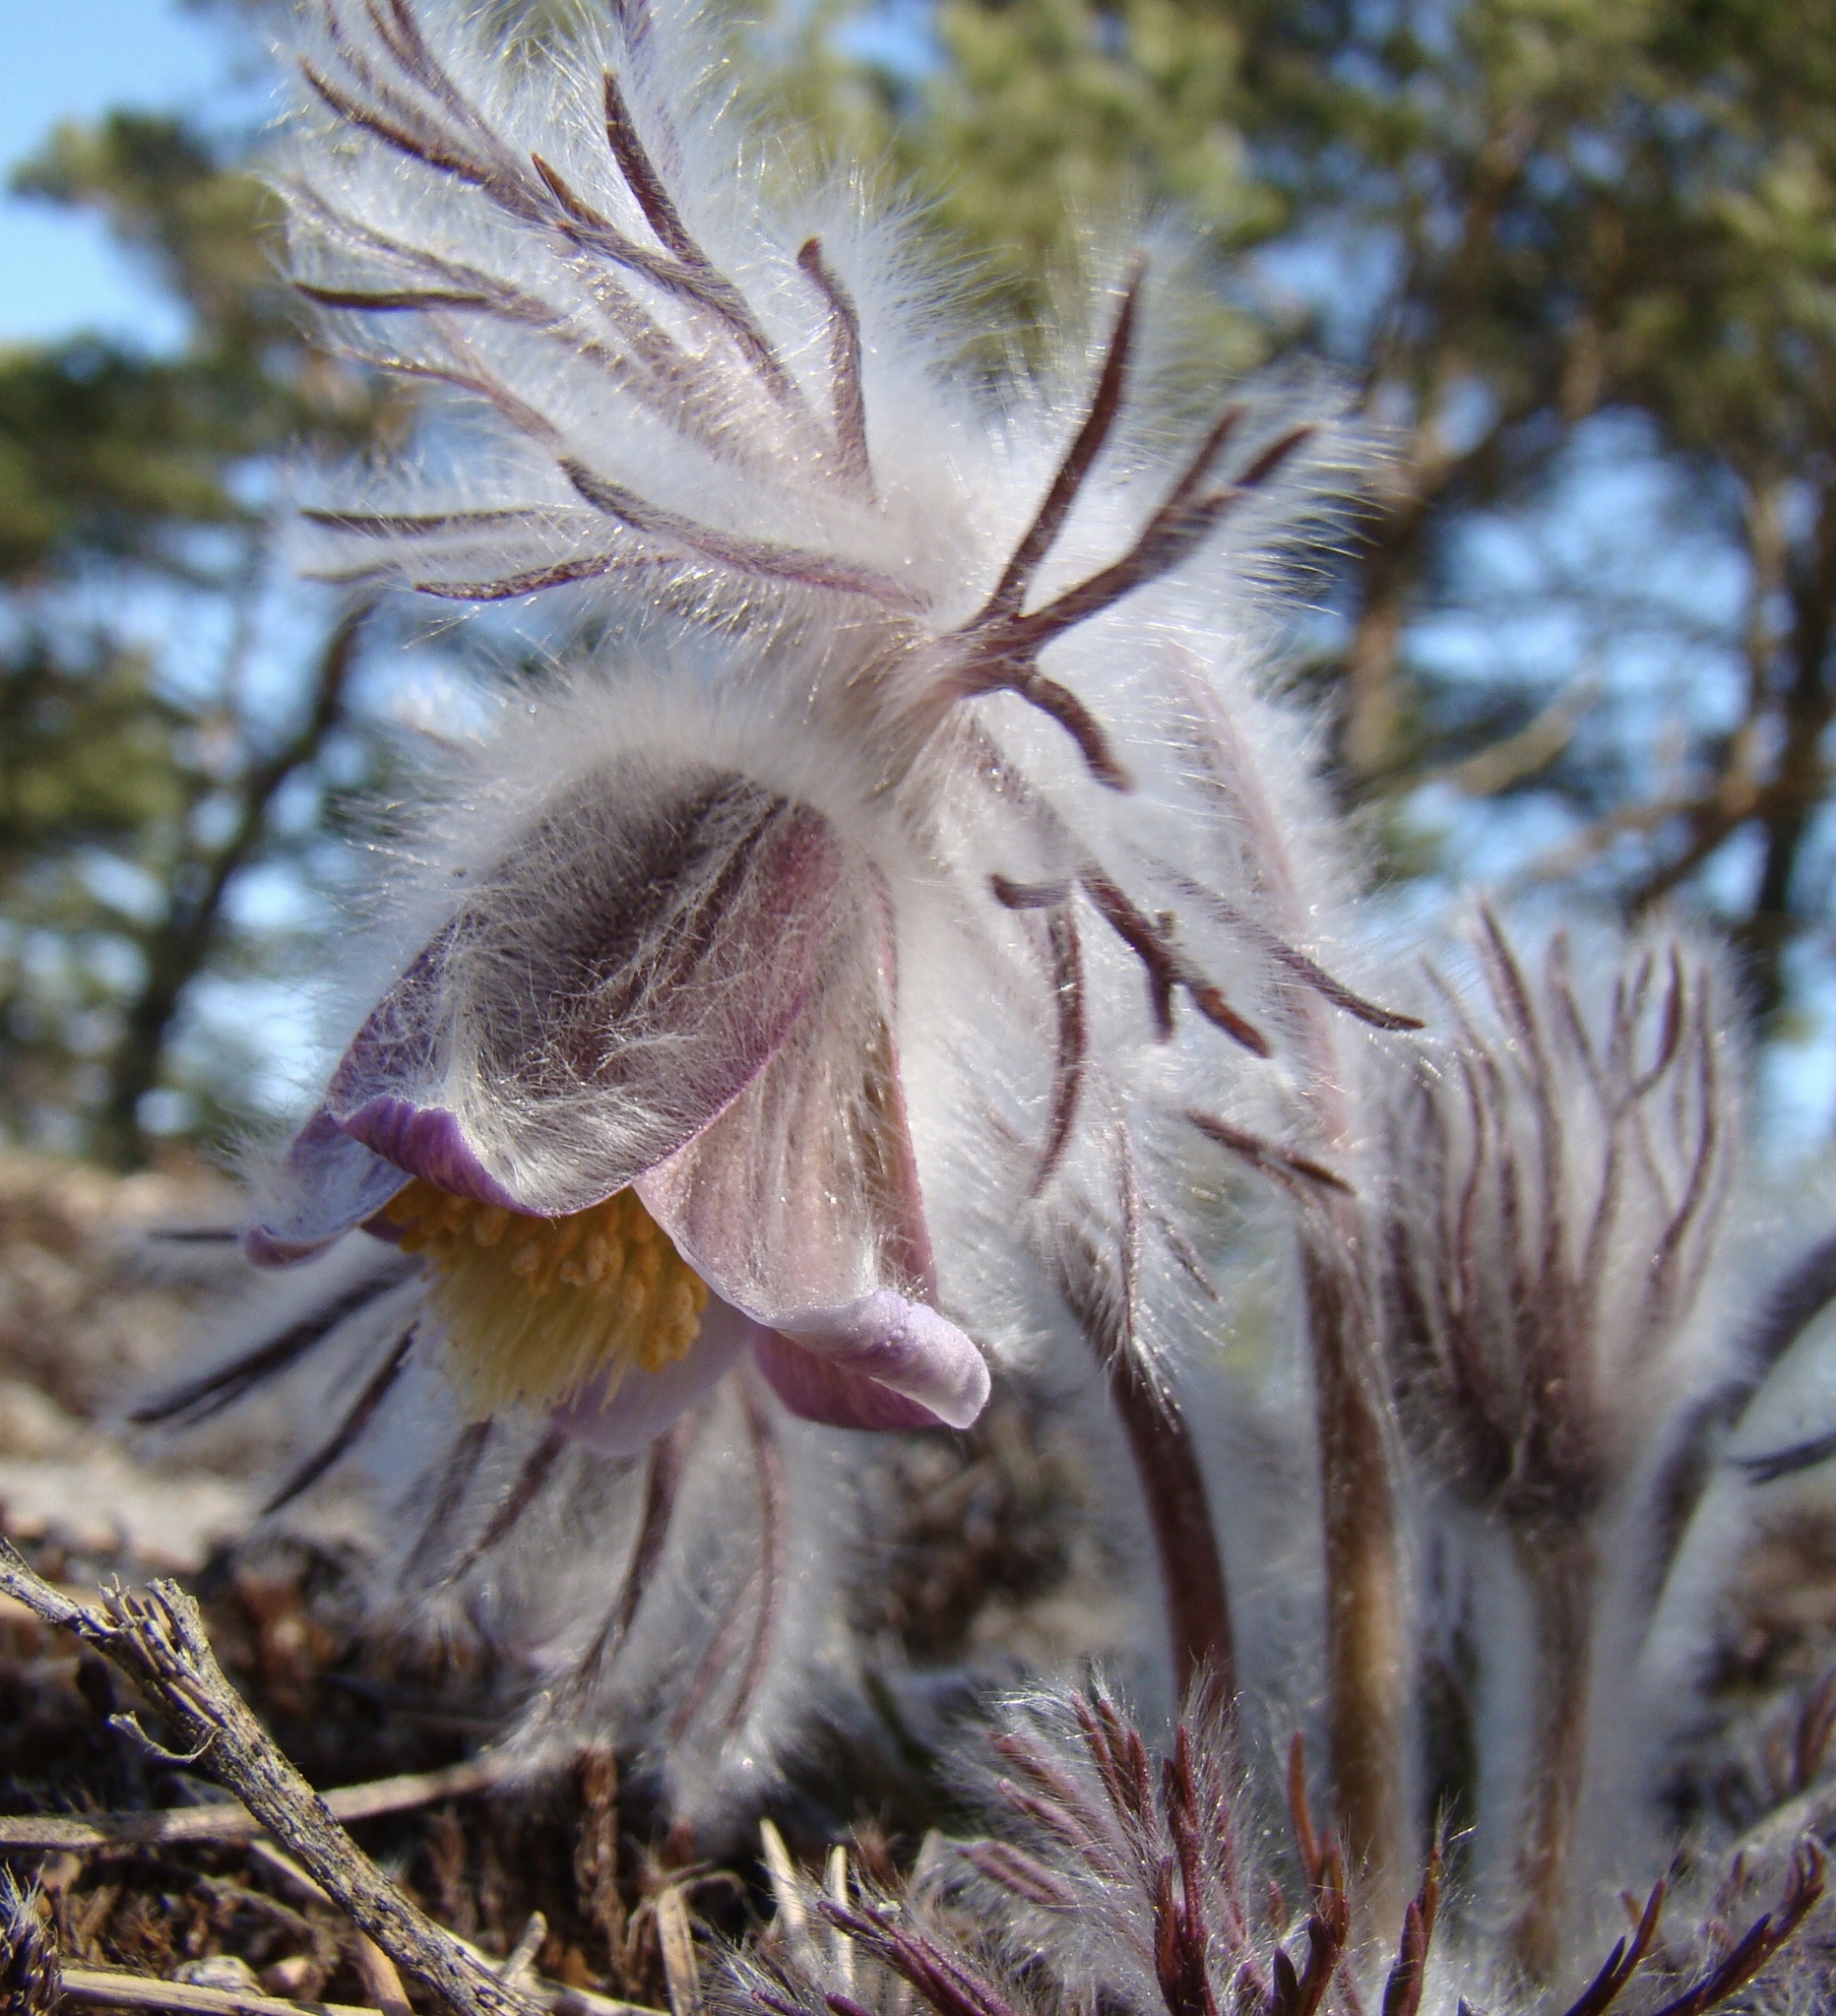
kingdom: Plantae
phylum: Tracheophyta
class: Magnoliopsida
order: Ranunculales
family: Ranunculaceae
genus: Pulsatilla
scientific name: Pulsatilla pratensis
